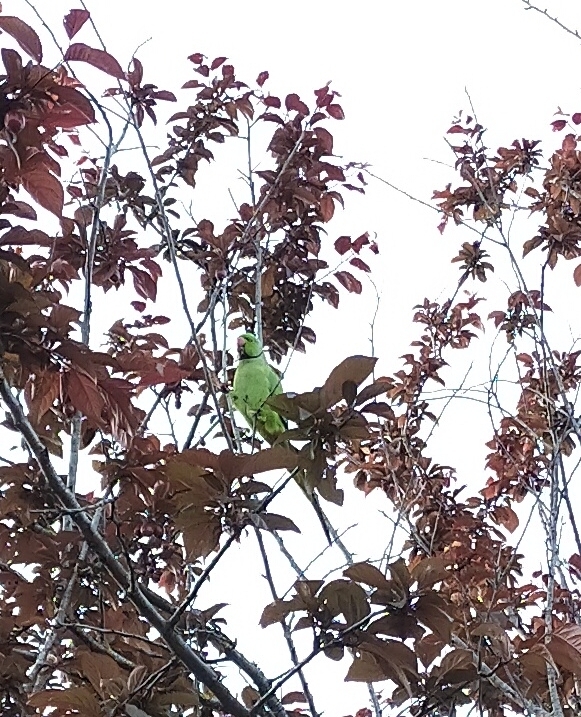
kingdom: Animalia
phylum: Chordata
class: Aves
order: Psittaciformes
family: Psittacidae
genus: Psittacula
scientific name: Psittacula krameri
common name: Rose-ringed parakeet
